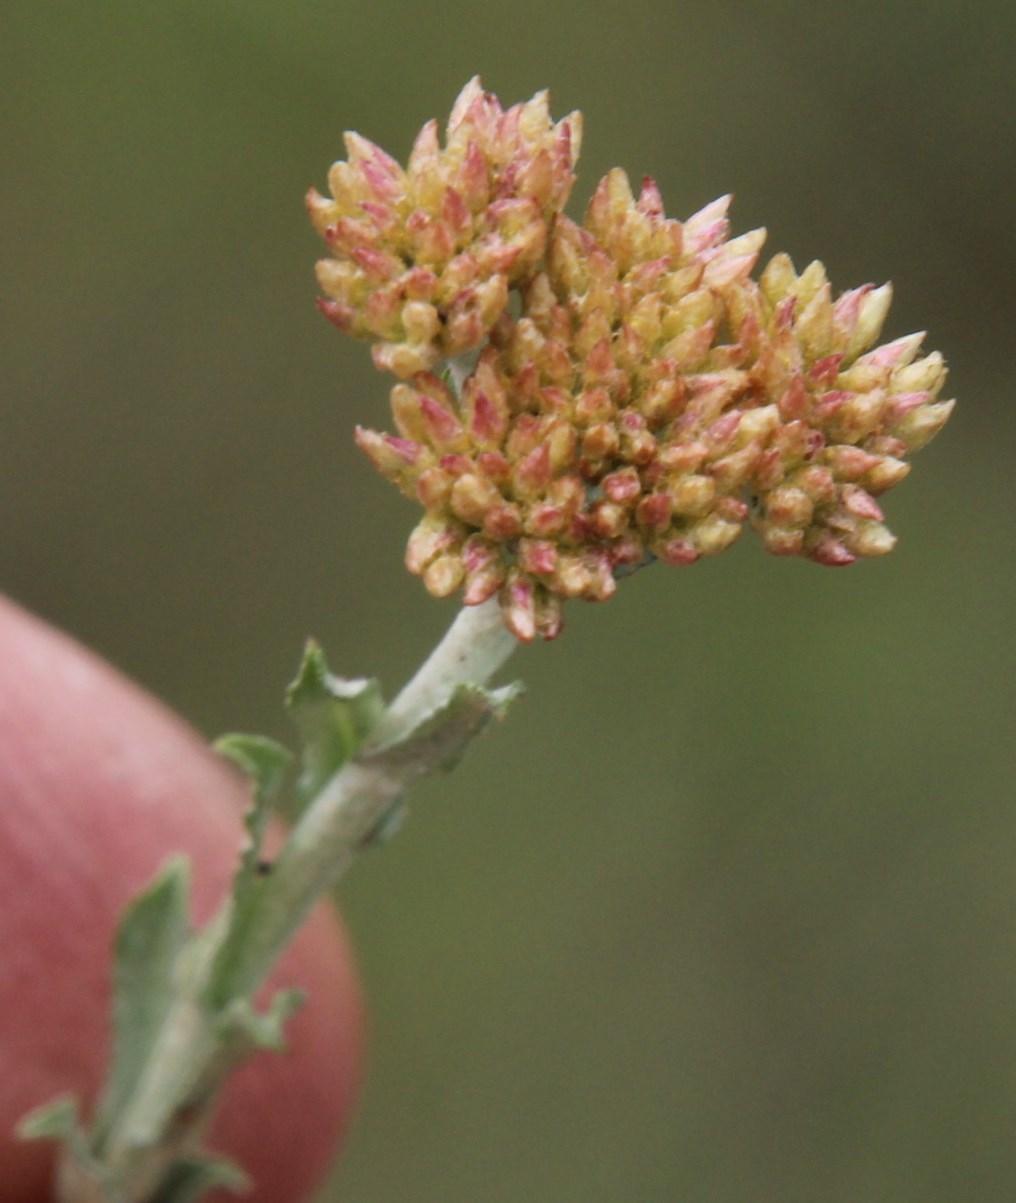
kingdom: Plantae
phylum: Tracheophyta
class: Magnoliopsida
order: Asterales
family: Asteraceae
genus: Helichrysum
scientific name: Helichrysum zeyheri
